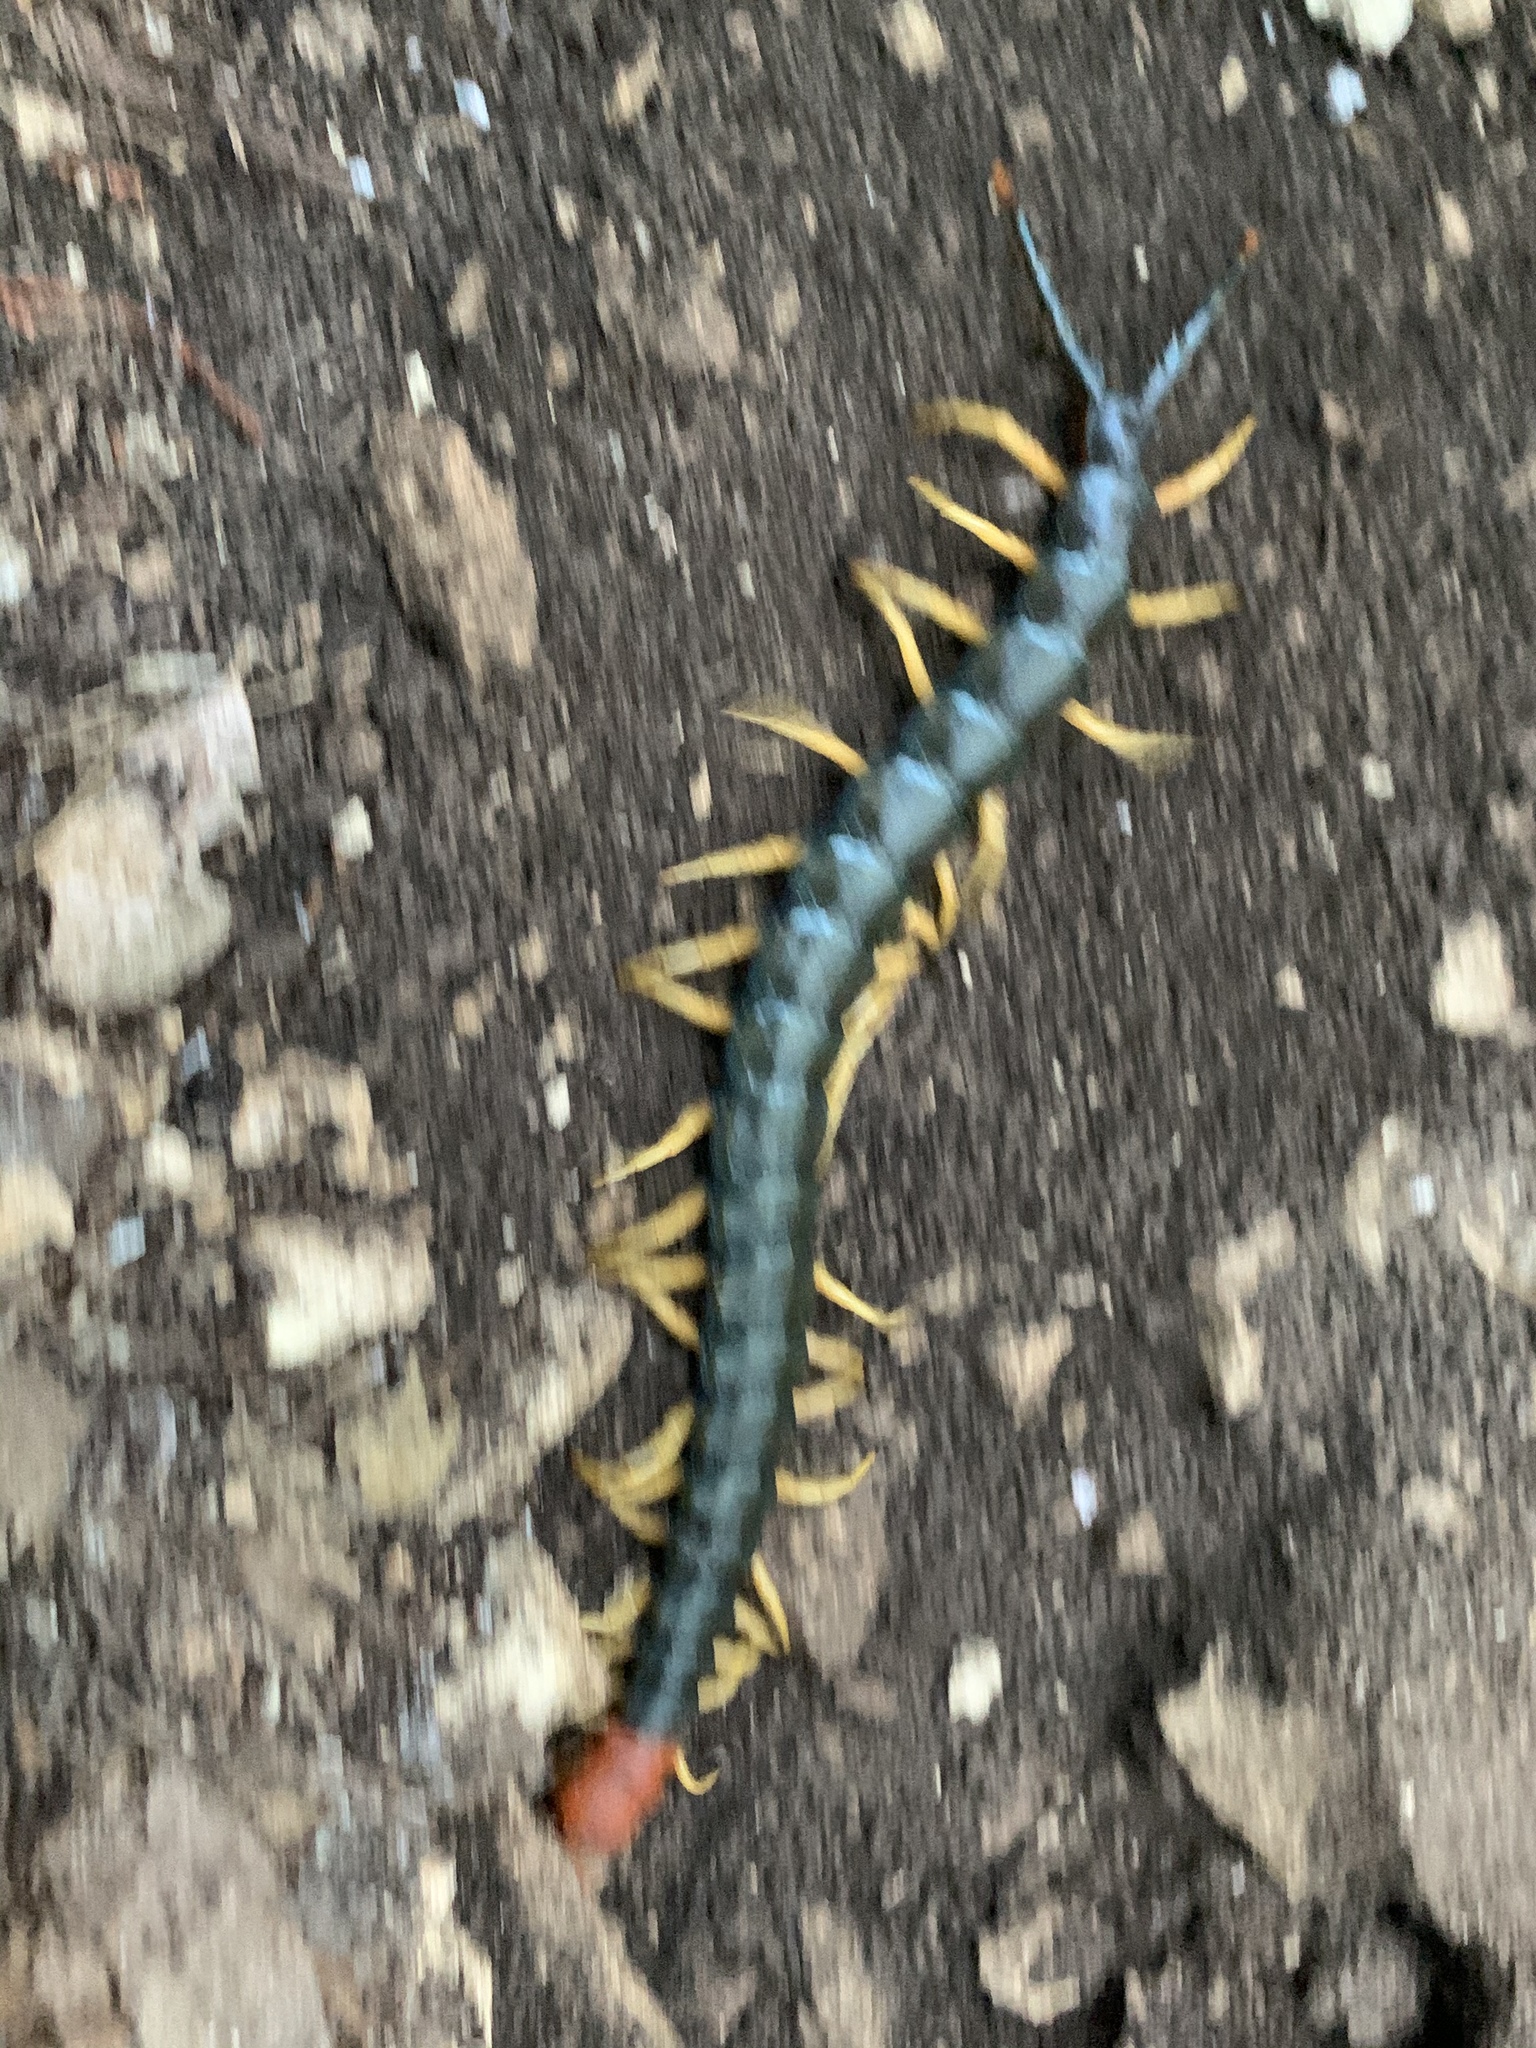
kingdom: Animalia
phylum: Arthropoda
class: Chilopoda
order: Scolopendromorpha
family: Scolopendridae
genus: Scolopendra
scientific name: Scolopendra heros
